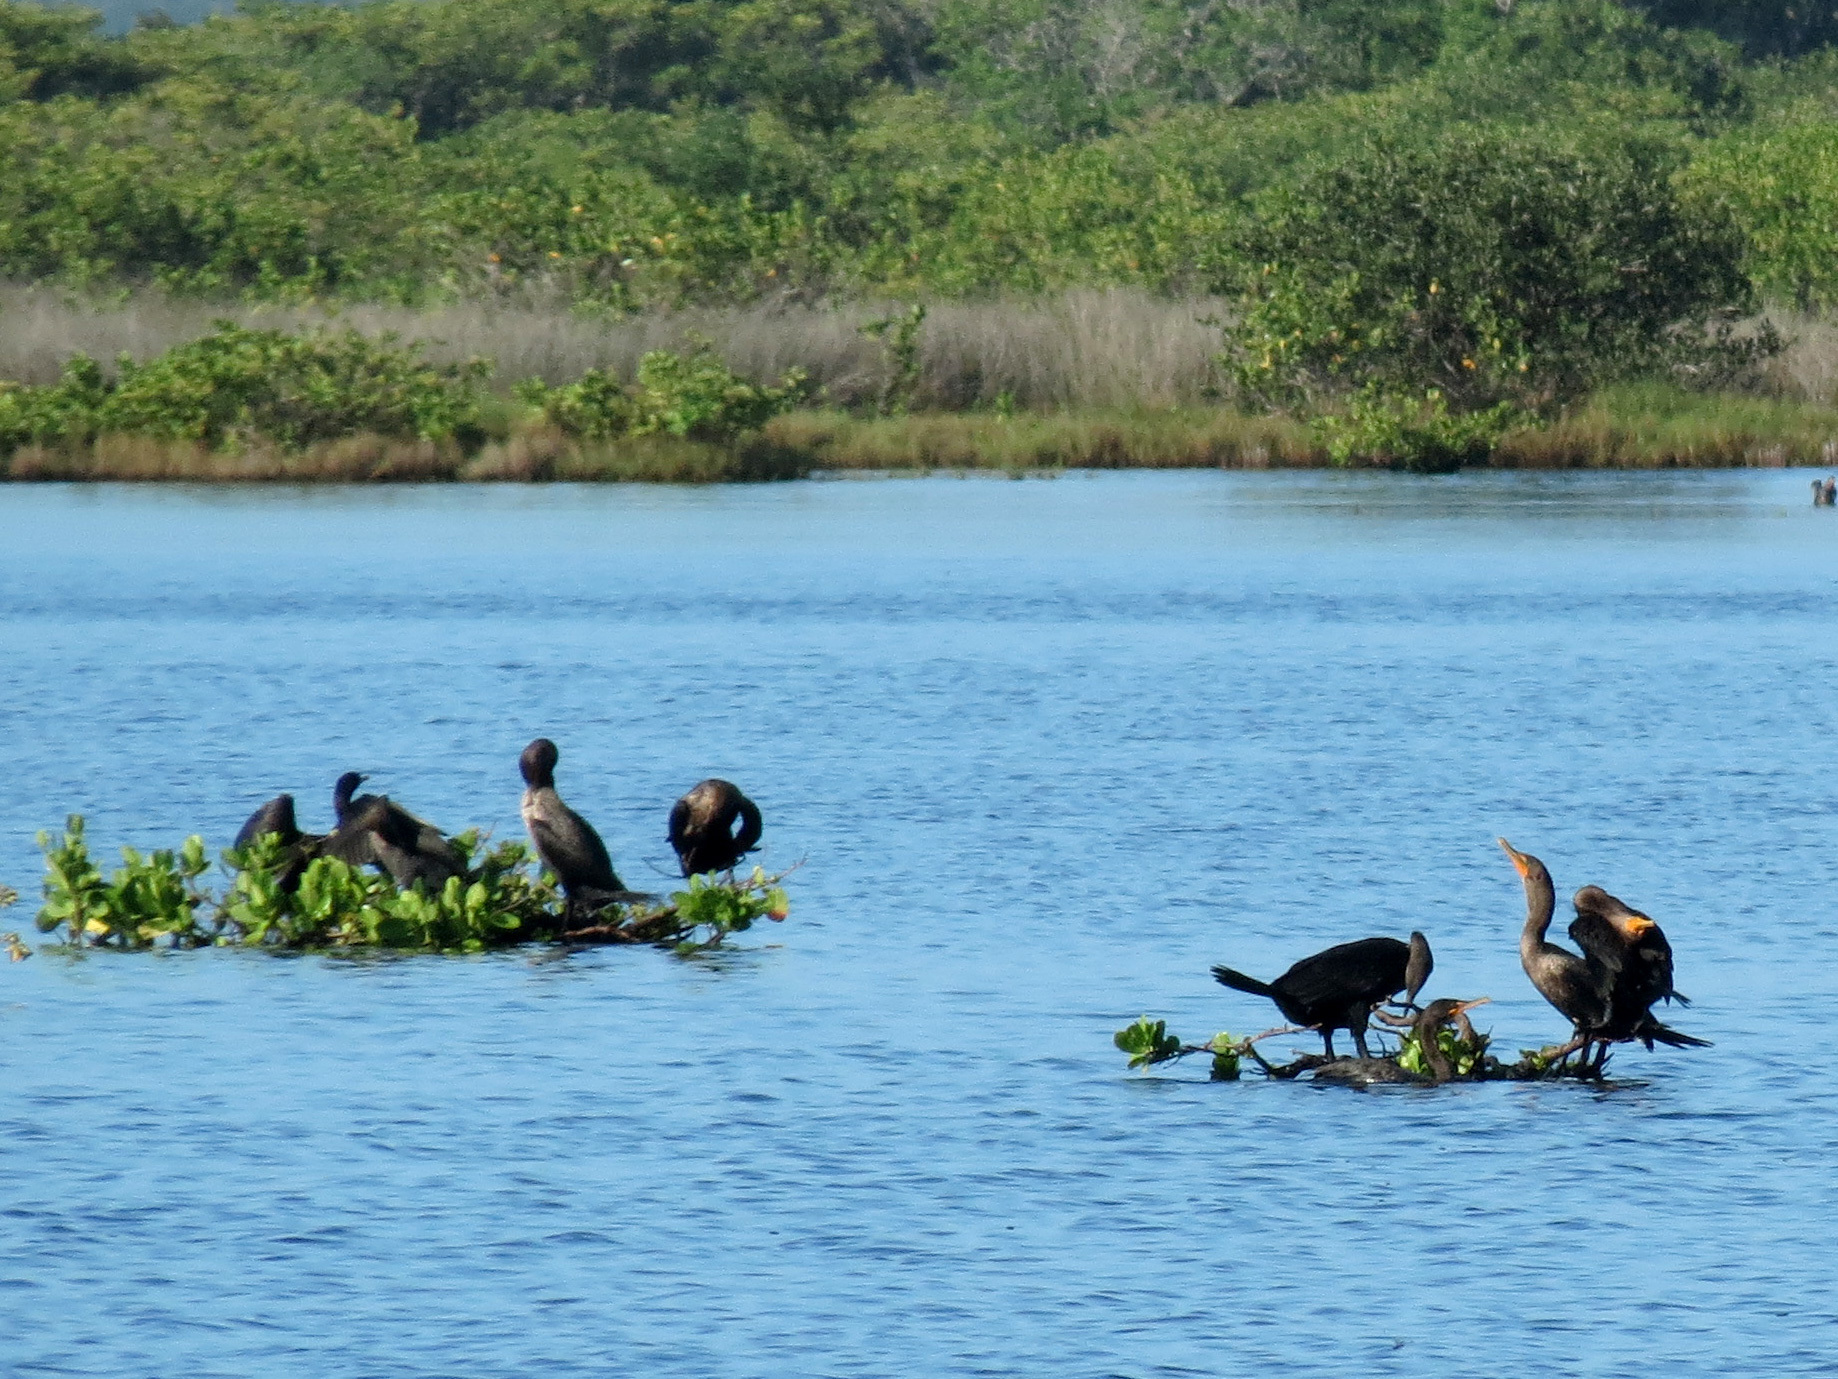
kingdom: Animalia
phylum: Chordata
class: Aves
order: Suliformes
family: Phalacrocoracidae
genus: Phalacrocorax
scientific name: Phalacrocorax auritus
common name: Double-crested cormorant
